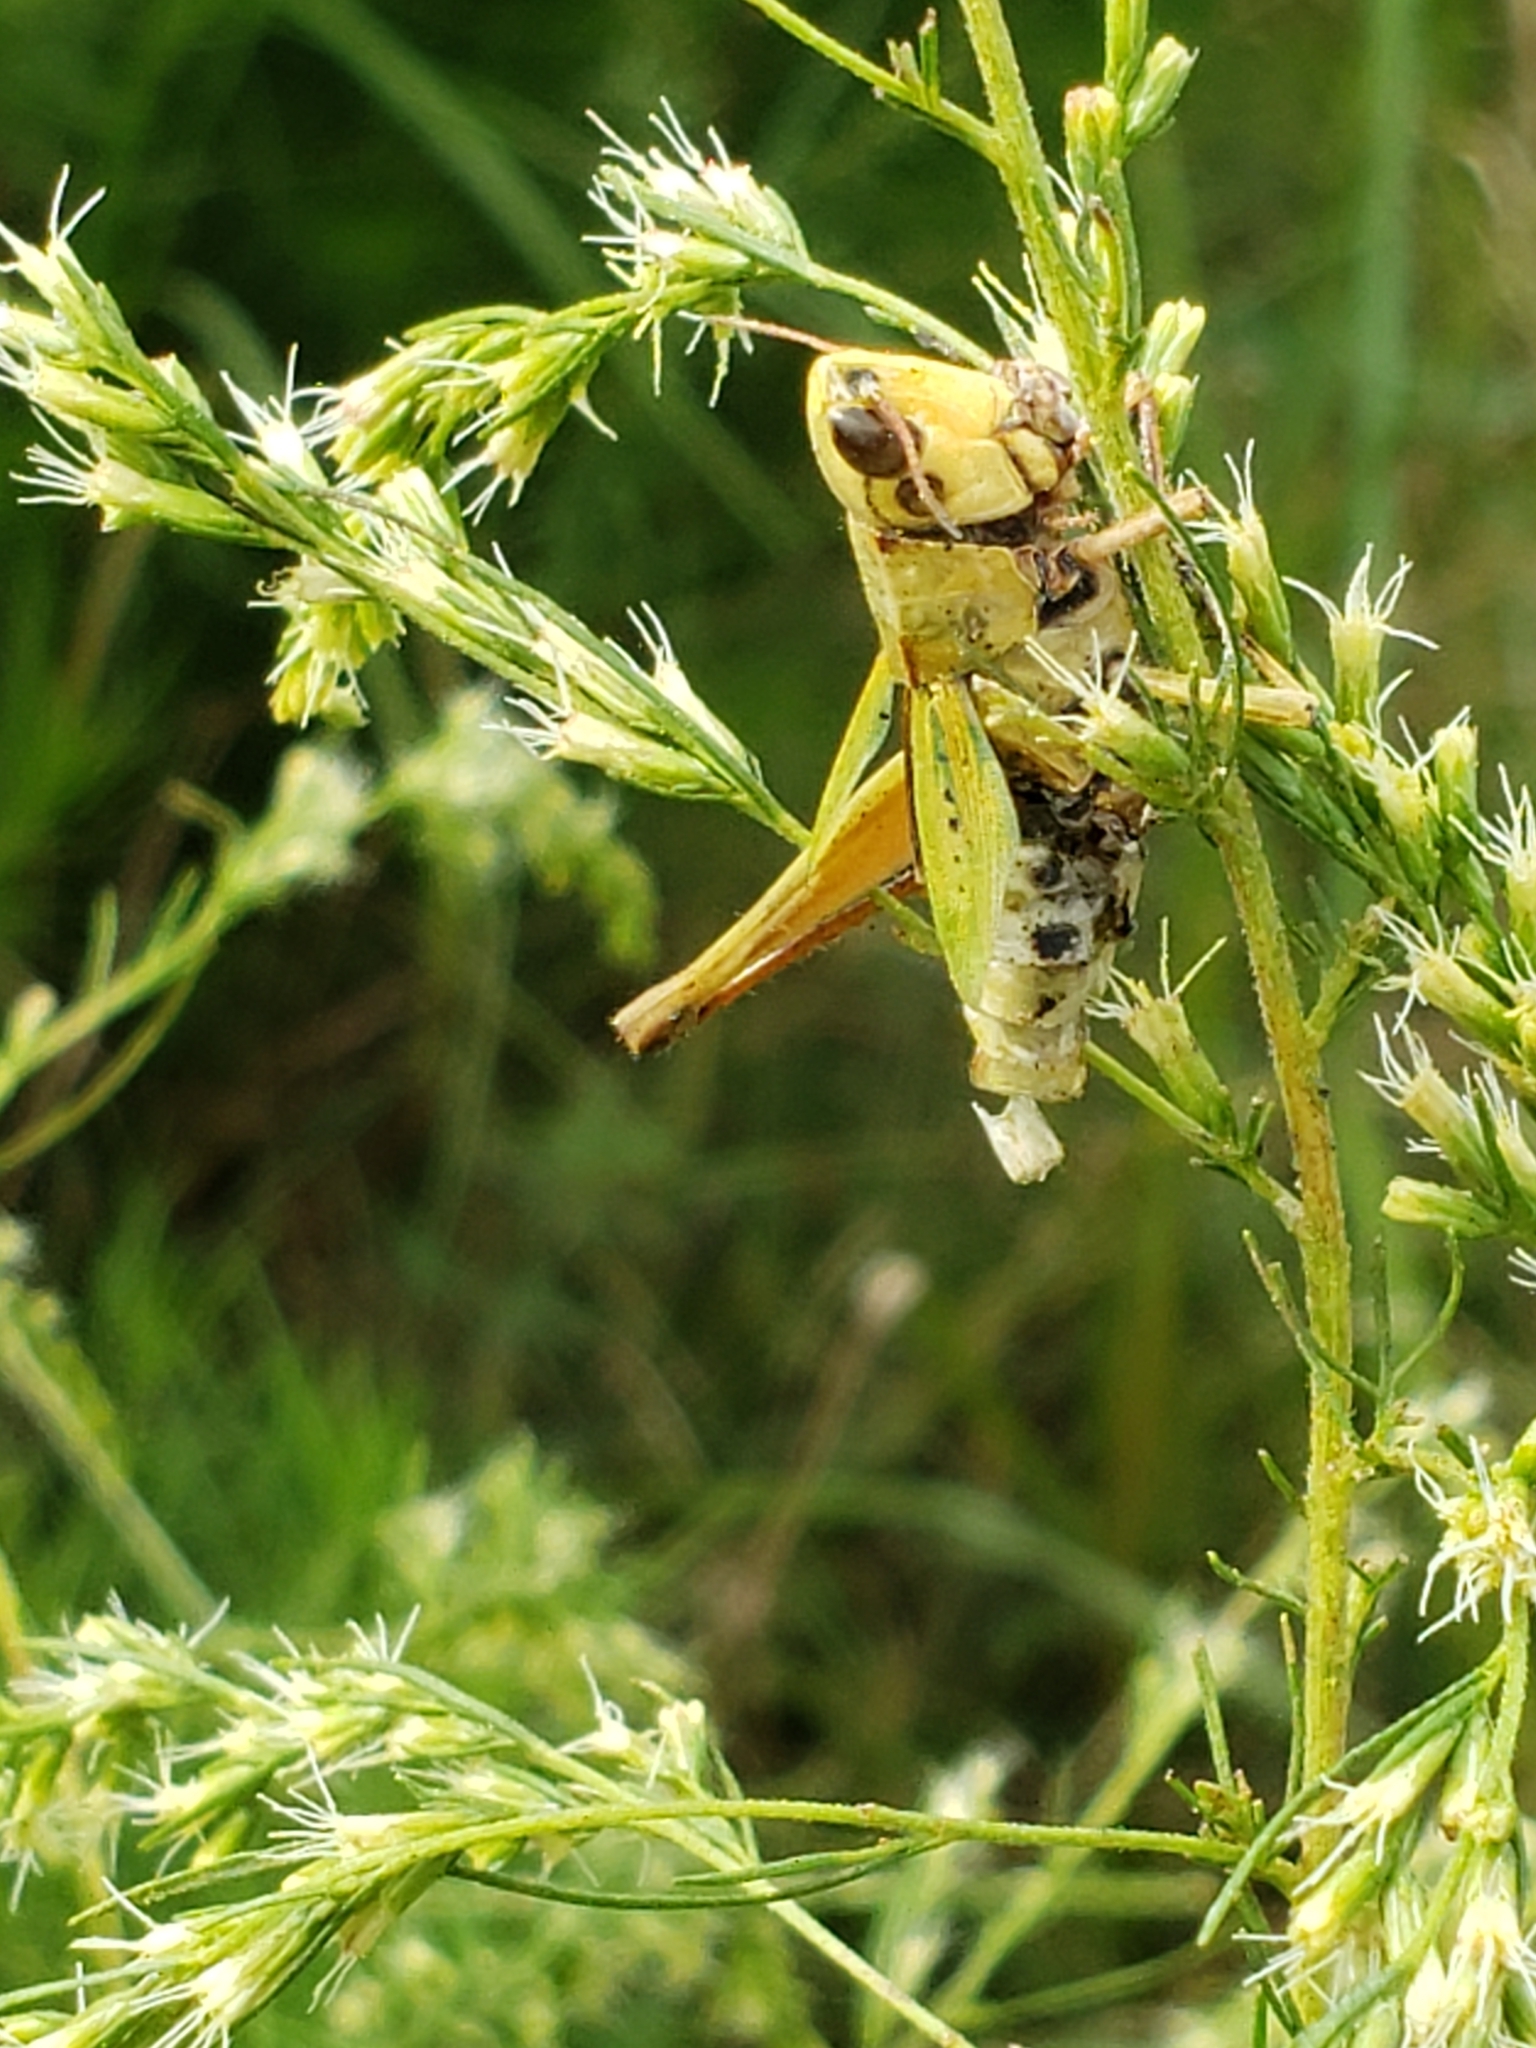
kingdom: Animalia
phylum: Arthropoda
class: Insecta
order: Orthoptera
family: Acrididae
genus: Dichromorpha
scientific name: Dichromorpha viridis
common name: Short-winged green grasshopper
